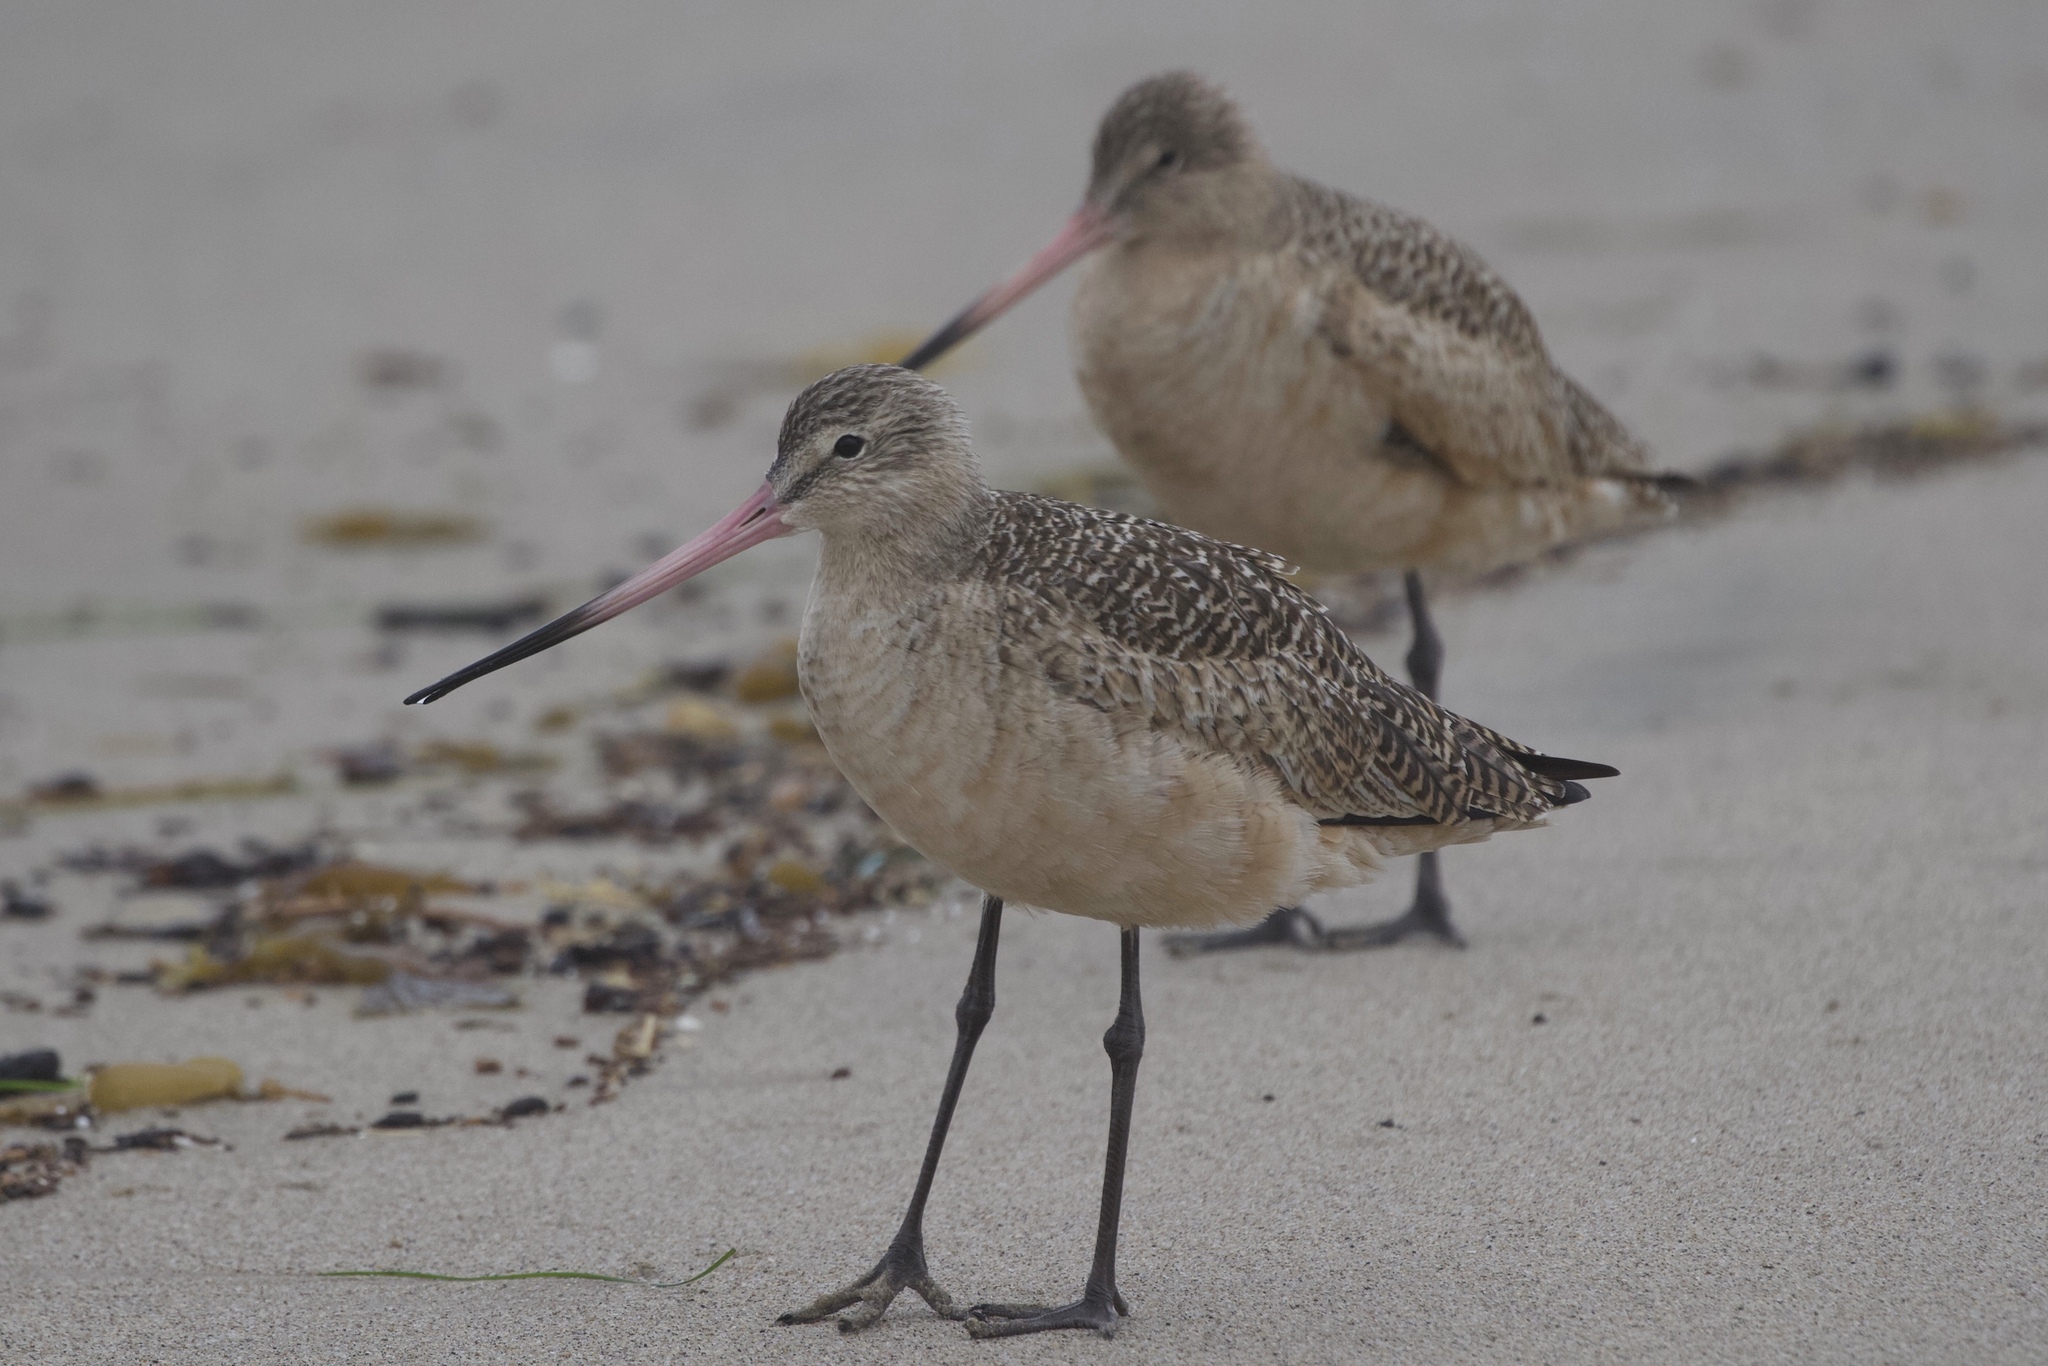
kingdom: Animalia
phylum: Chordata
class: Aves
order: Charadriiformes
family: Scolopacidae
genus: Limosa
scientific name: Limosa fedoa
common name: Marbled godwit
